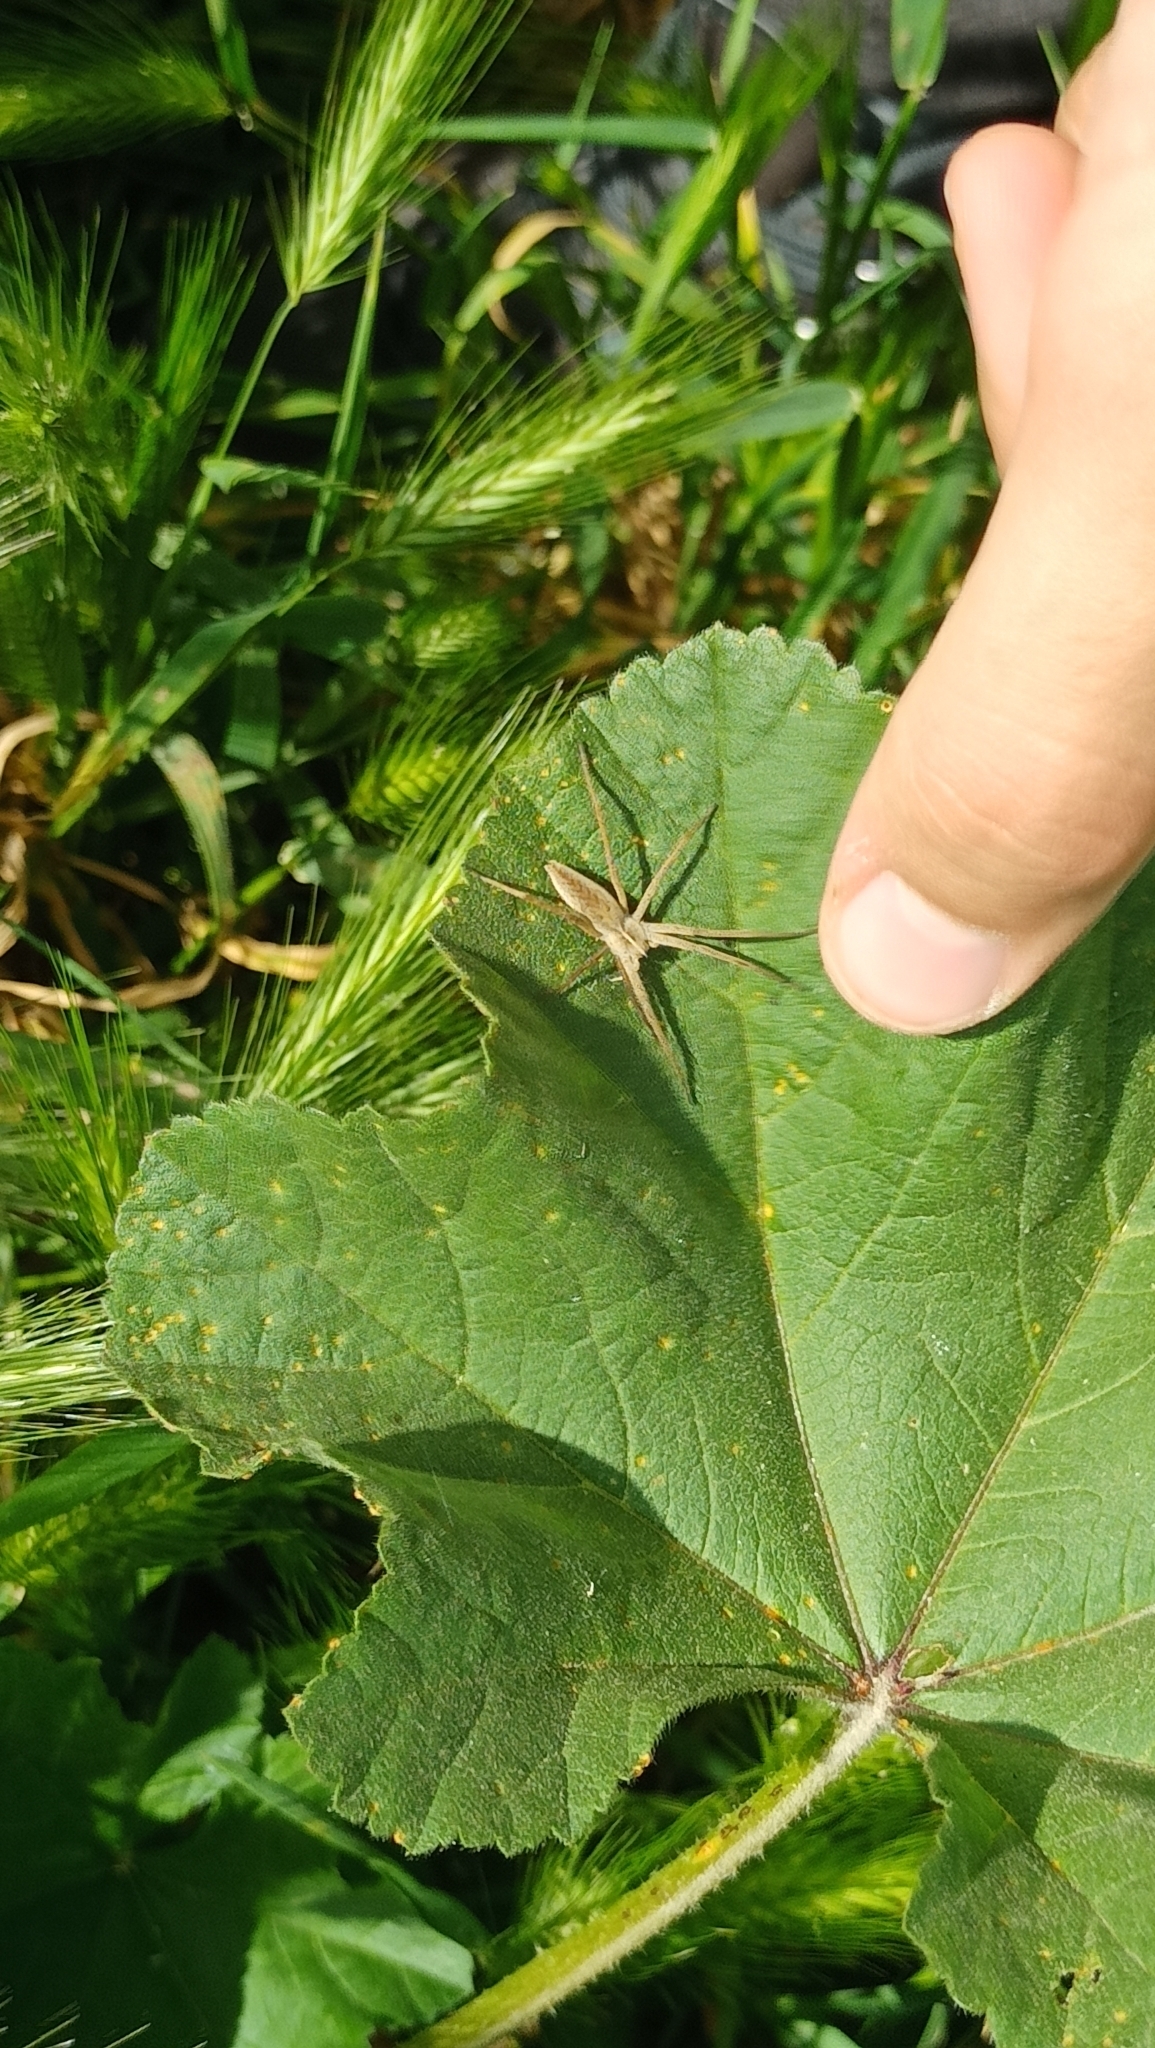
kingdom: Animalia
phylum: Arthropoda
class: Arachnida
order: Araneae
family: Pisauridae
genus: Pisaura
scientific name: Pisaura mirabilis
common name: Tent spider
